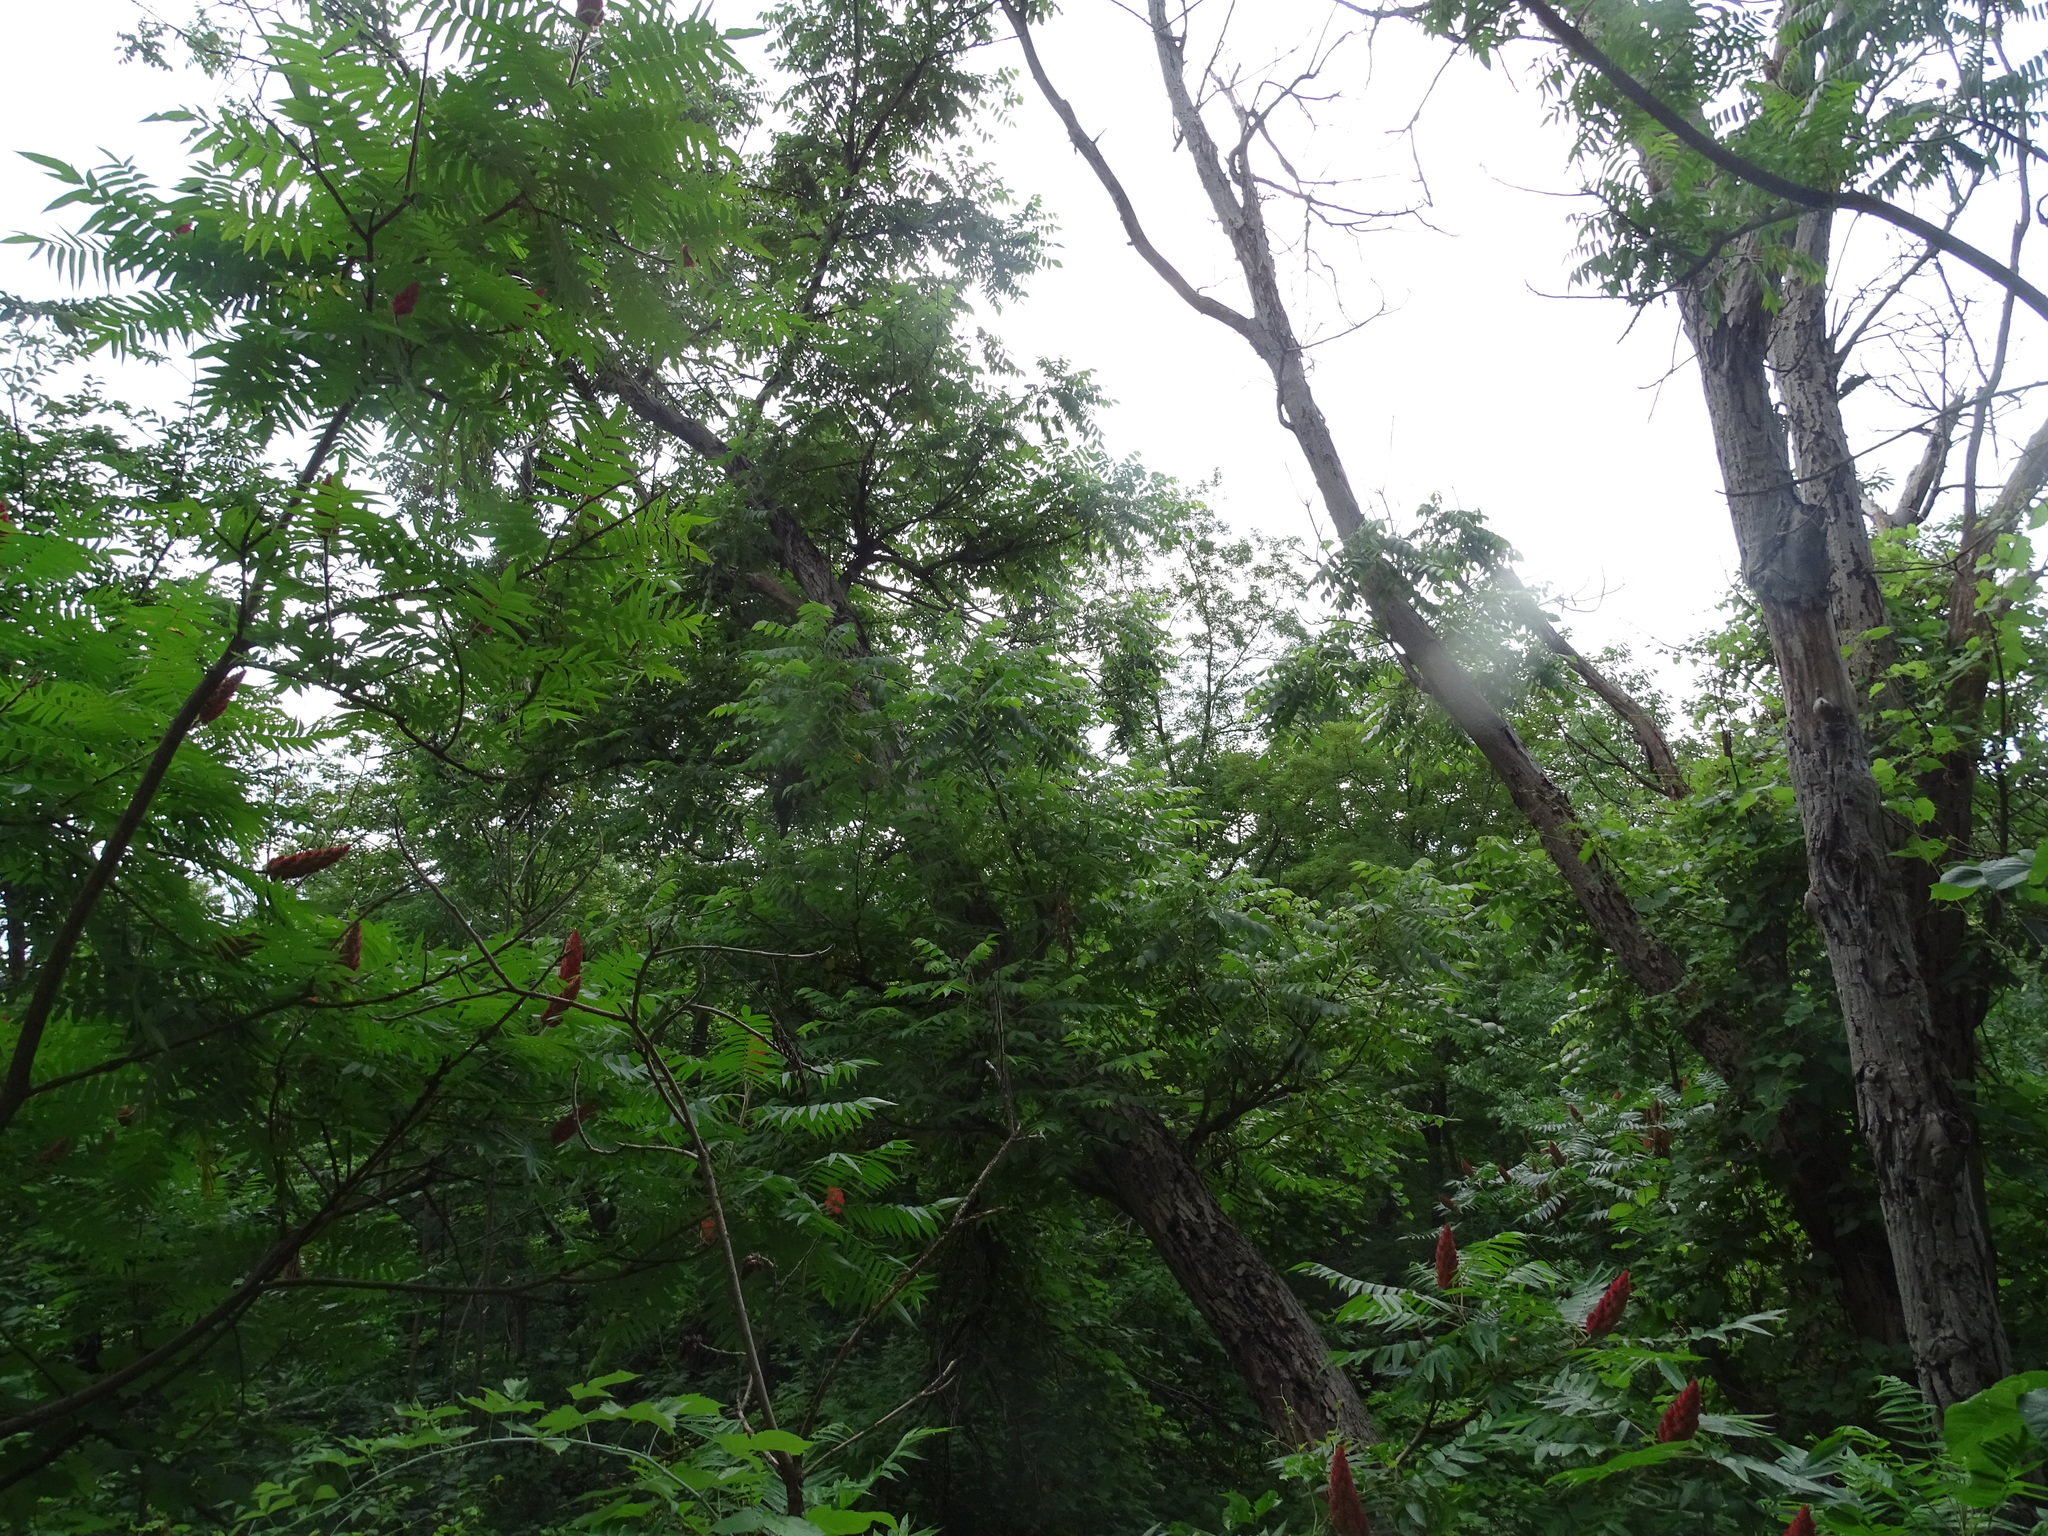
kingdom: Plantae
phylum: Tracheophyta
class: Magnoliopsida
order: Fagales
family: Juglandaceae
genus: Juglans
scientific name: Juglans cinerea
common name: Butternut
